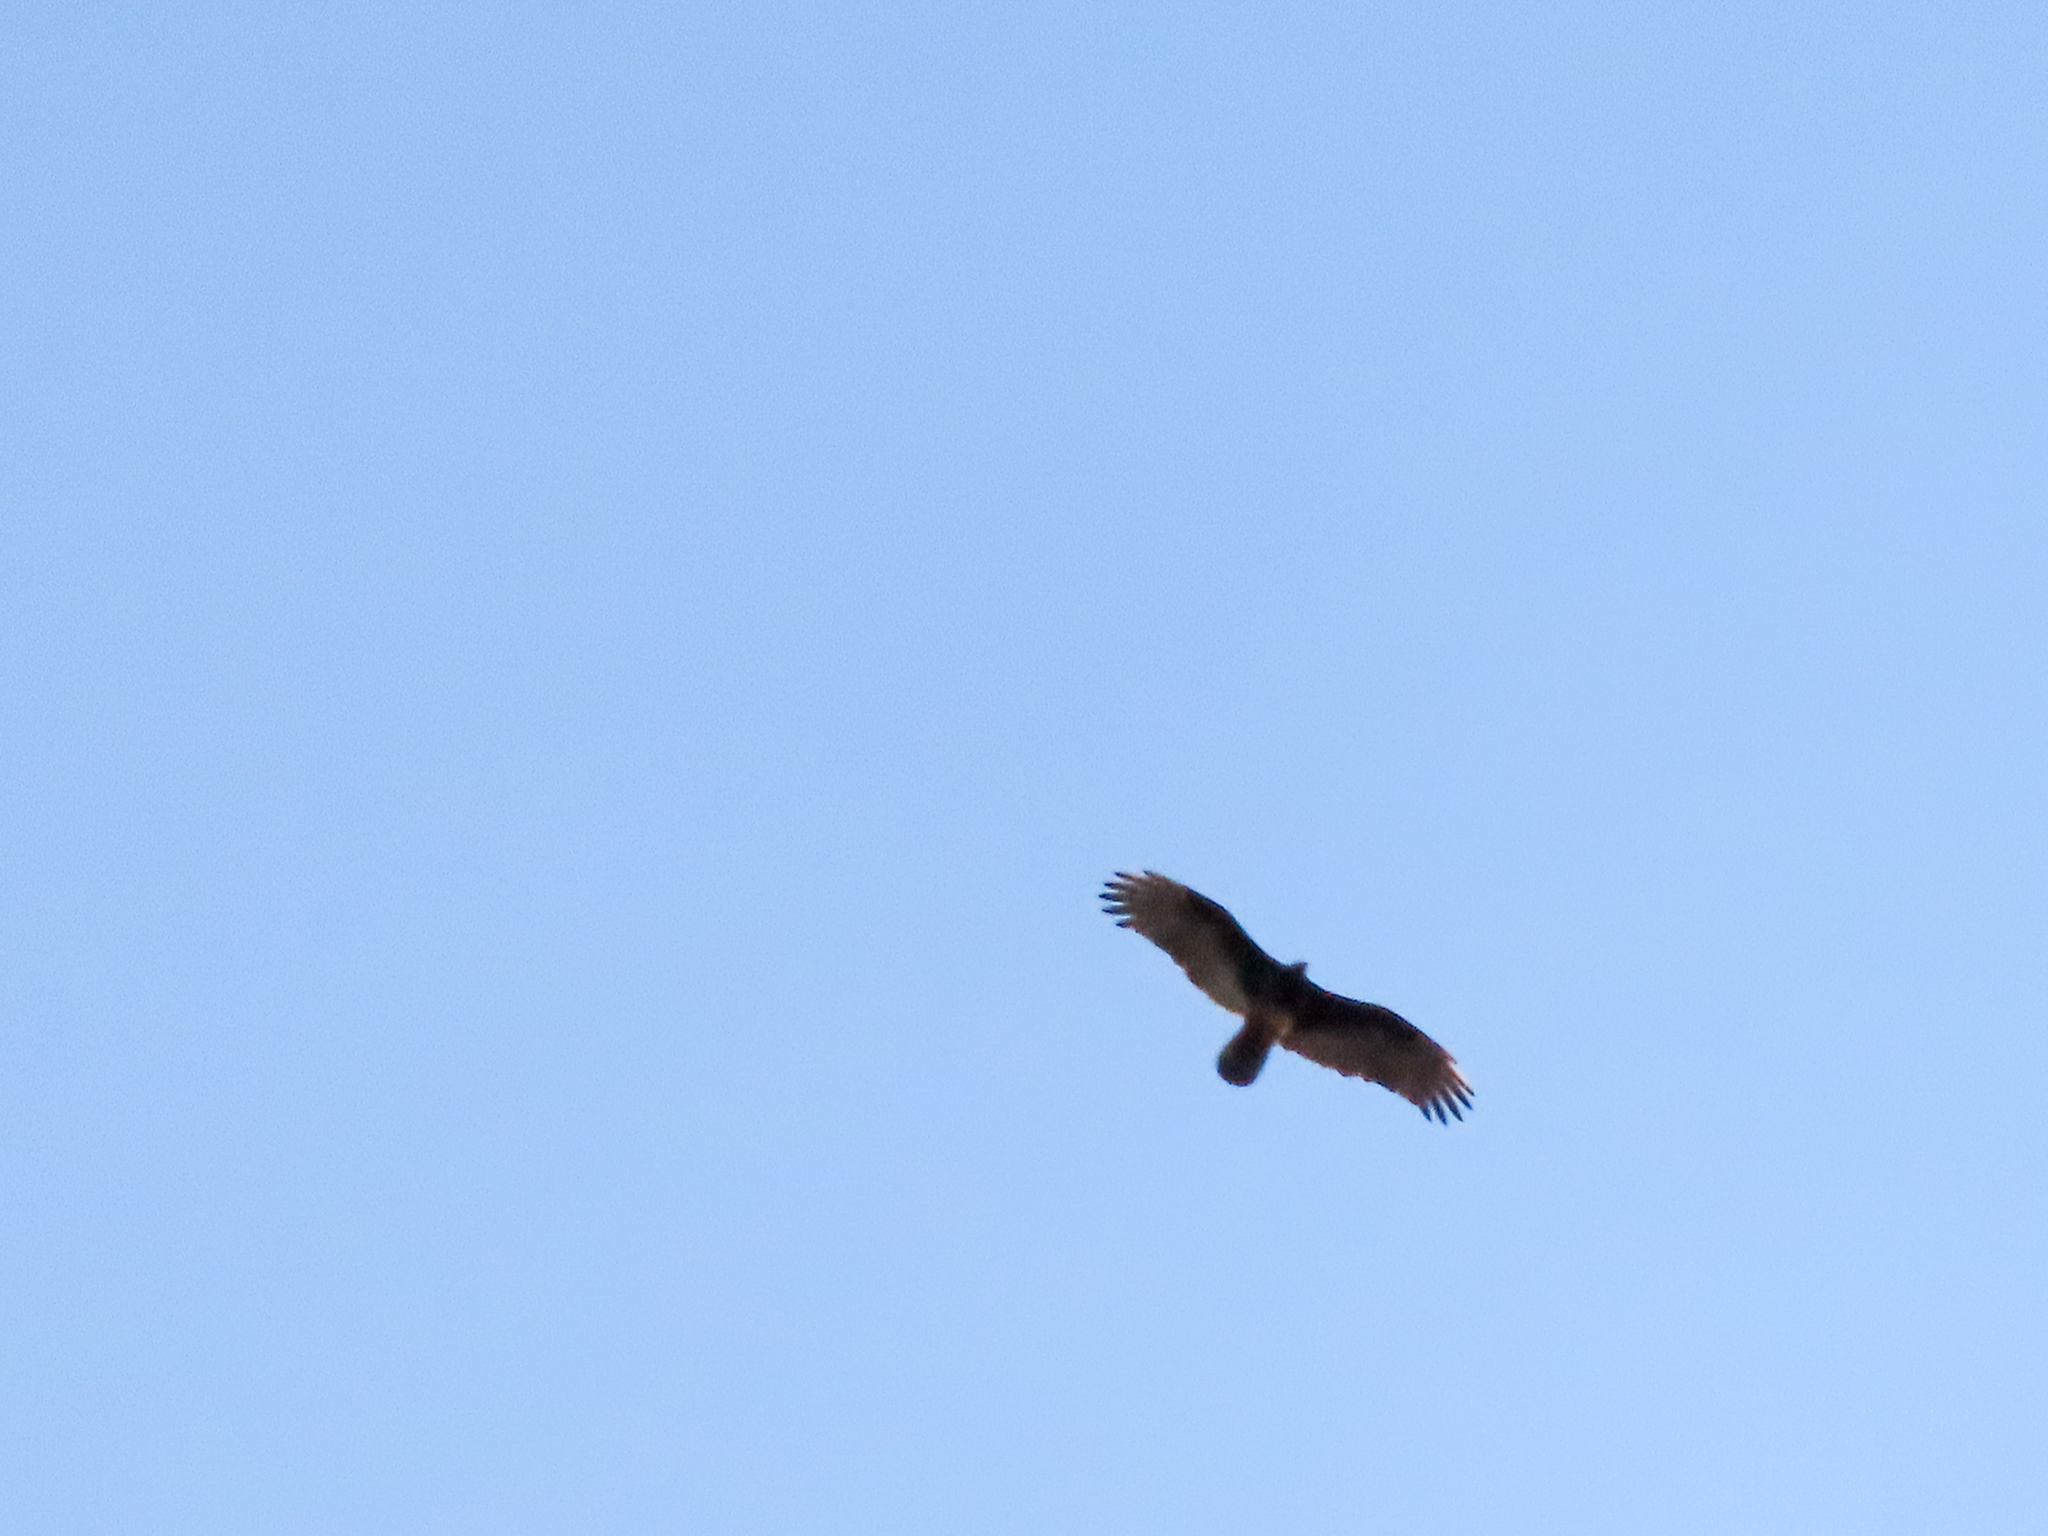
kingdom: Animalia
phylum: Chordata
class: Aves
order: Accipitriformes
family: Cathartidae
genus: Cathartes
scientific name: Cathartes aura
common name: Turkey vulture
